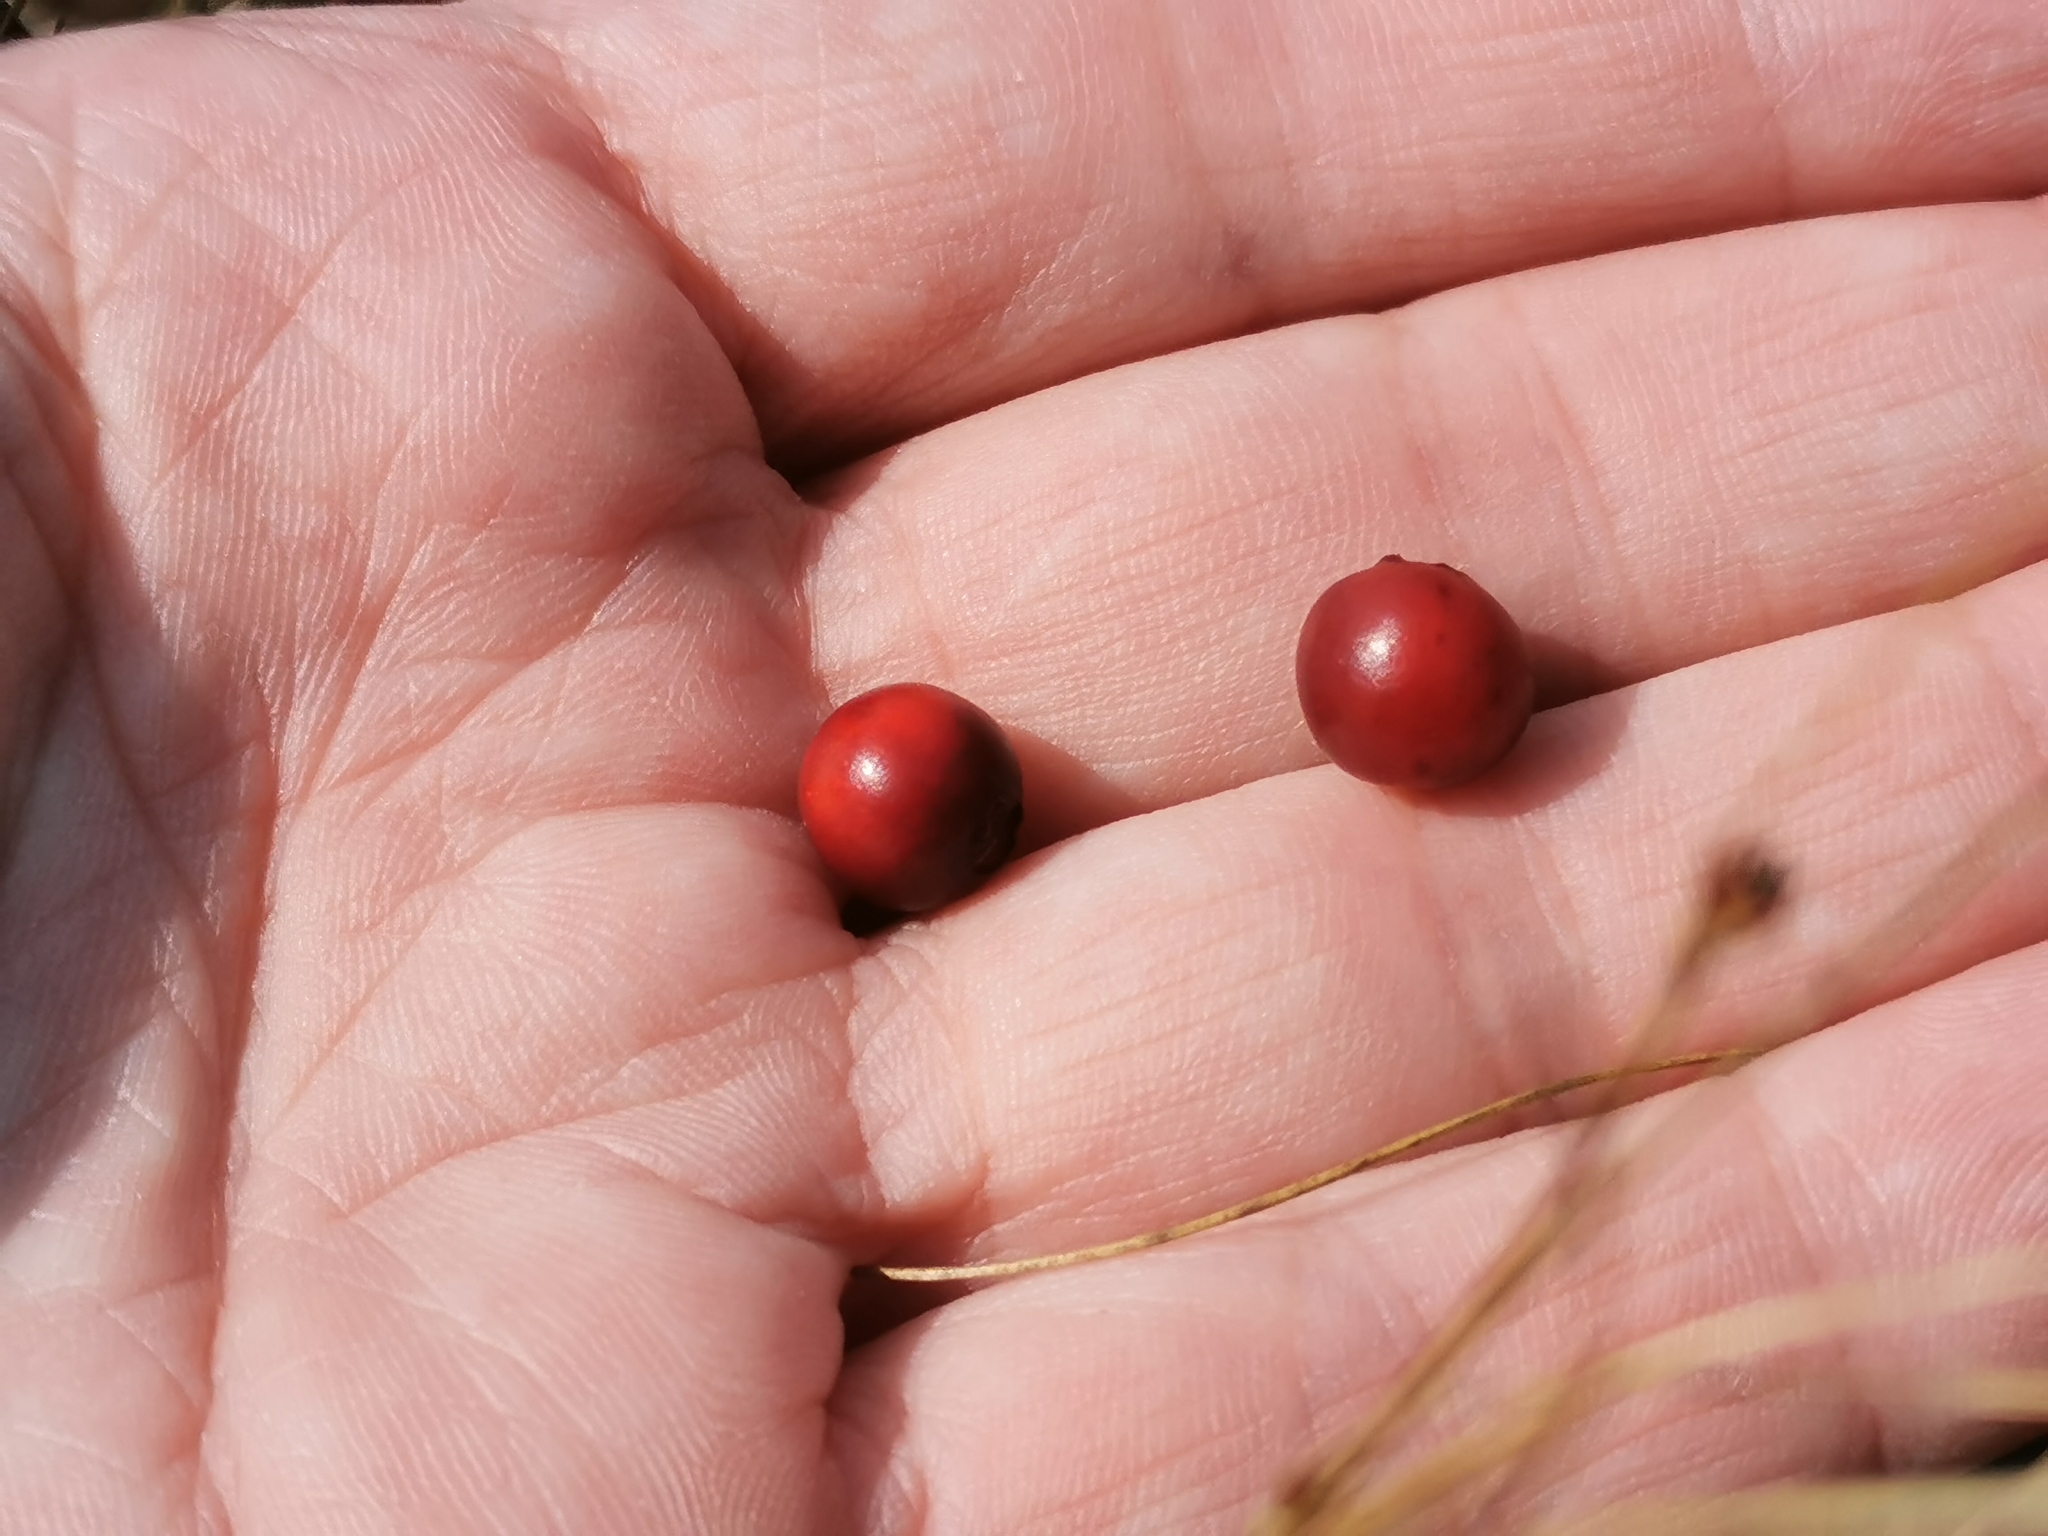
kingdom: Plantae
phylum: Tracheophyta
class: Magnoliopsida
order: Ericales
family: Ericaceae
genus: Vaccinium
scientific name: Vaccinium vitis-idaea
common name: Cowberry
